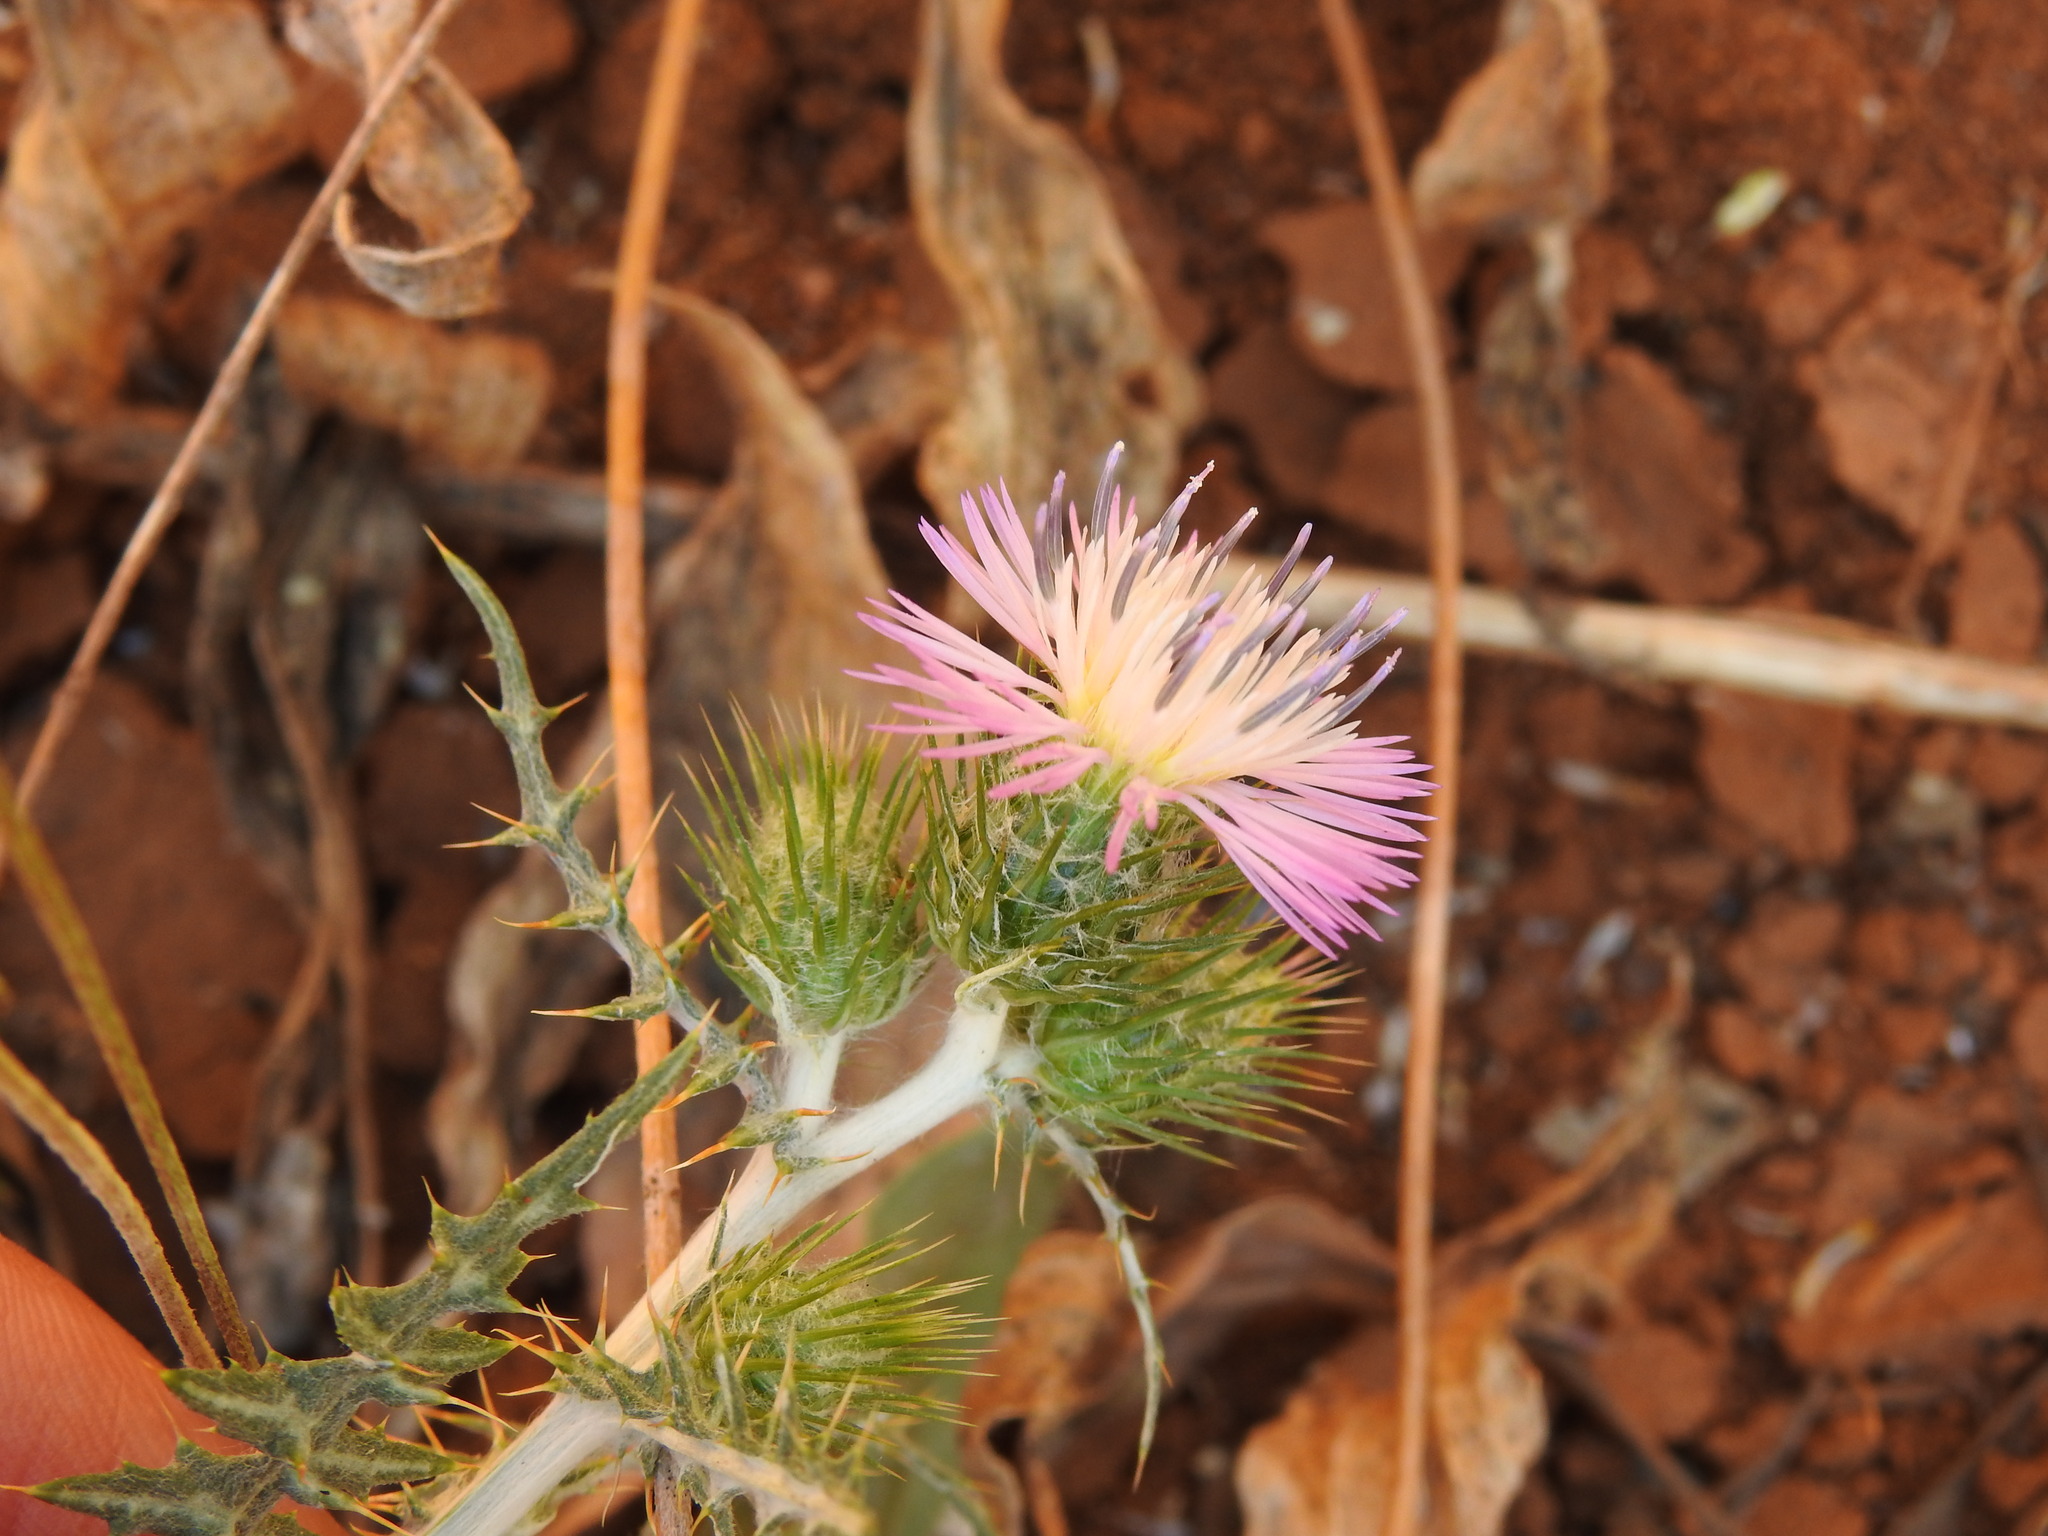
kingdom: Plantae
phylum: Tracheophyta
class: Magnoliopsida
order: Asterales
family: Asteraceae
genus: Galactites
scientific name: Galactites tomentosa
